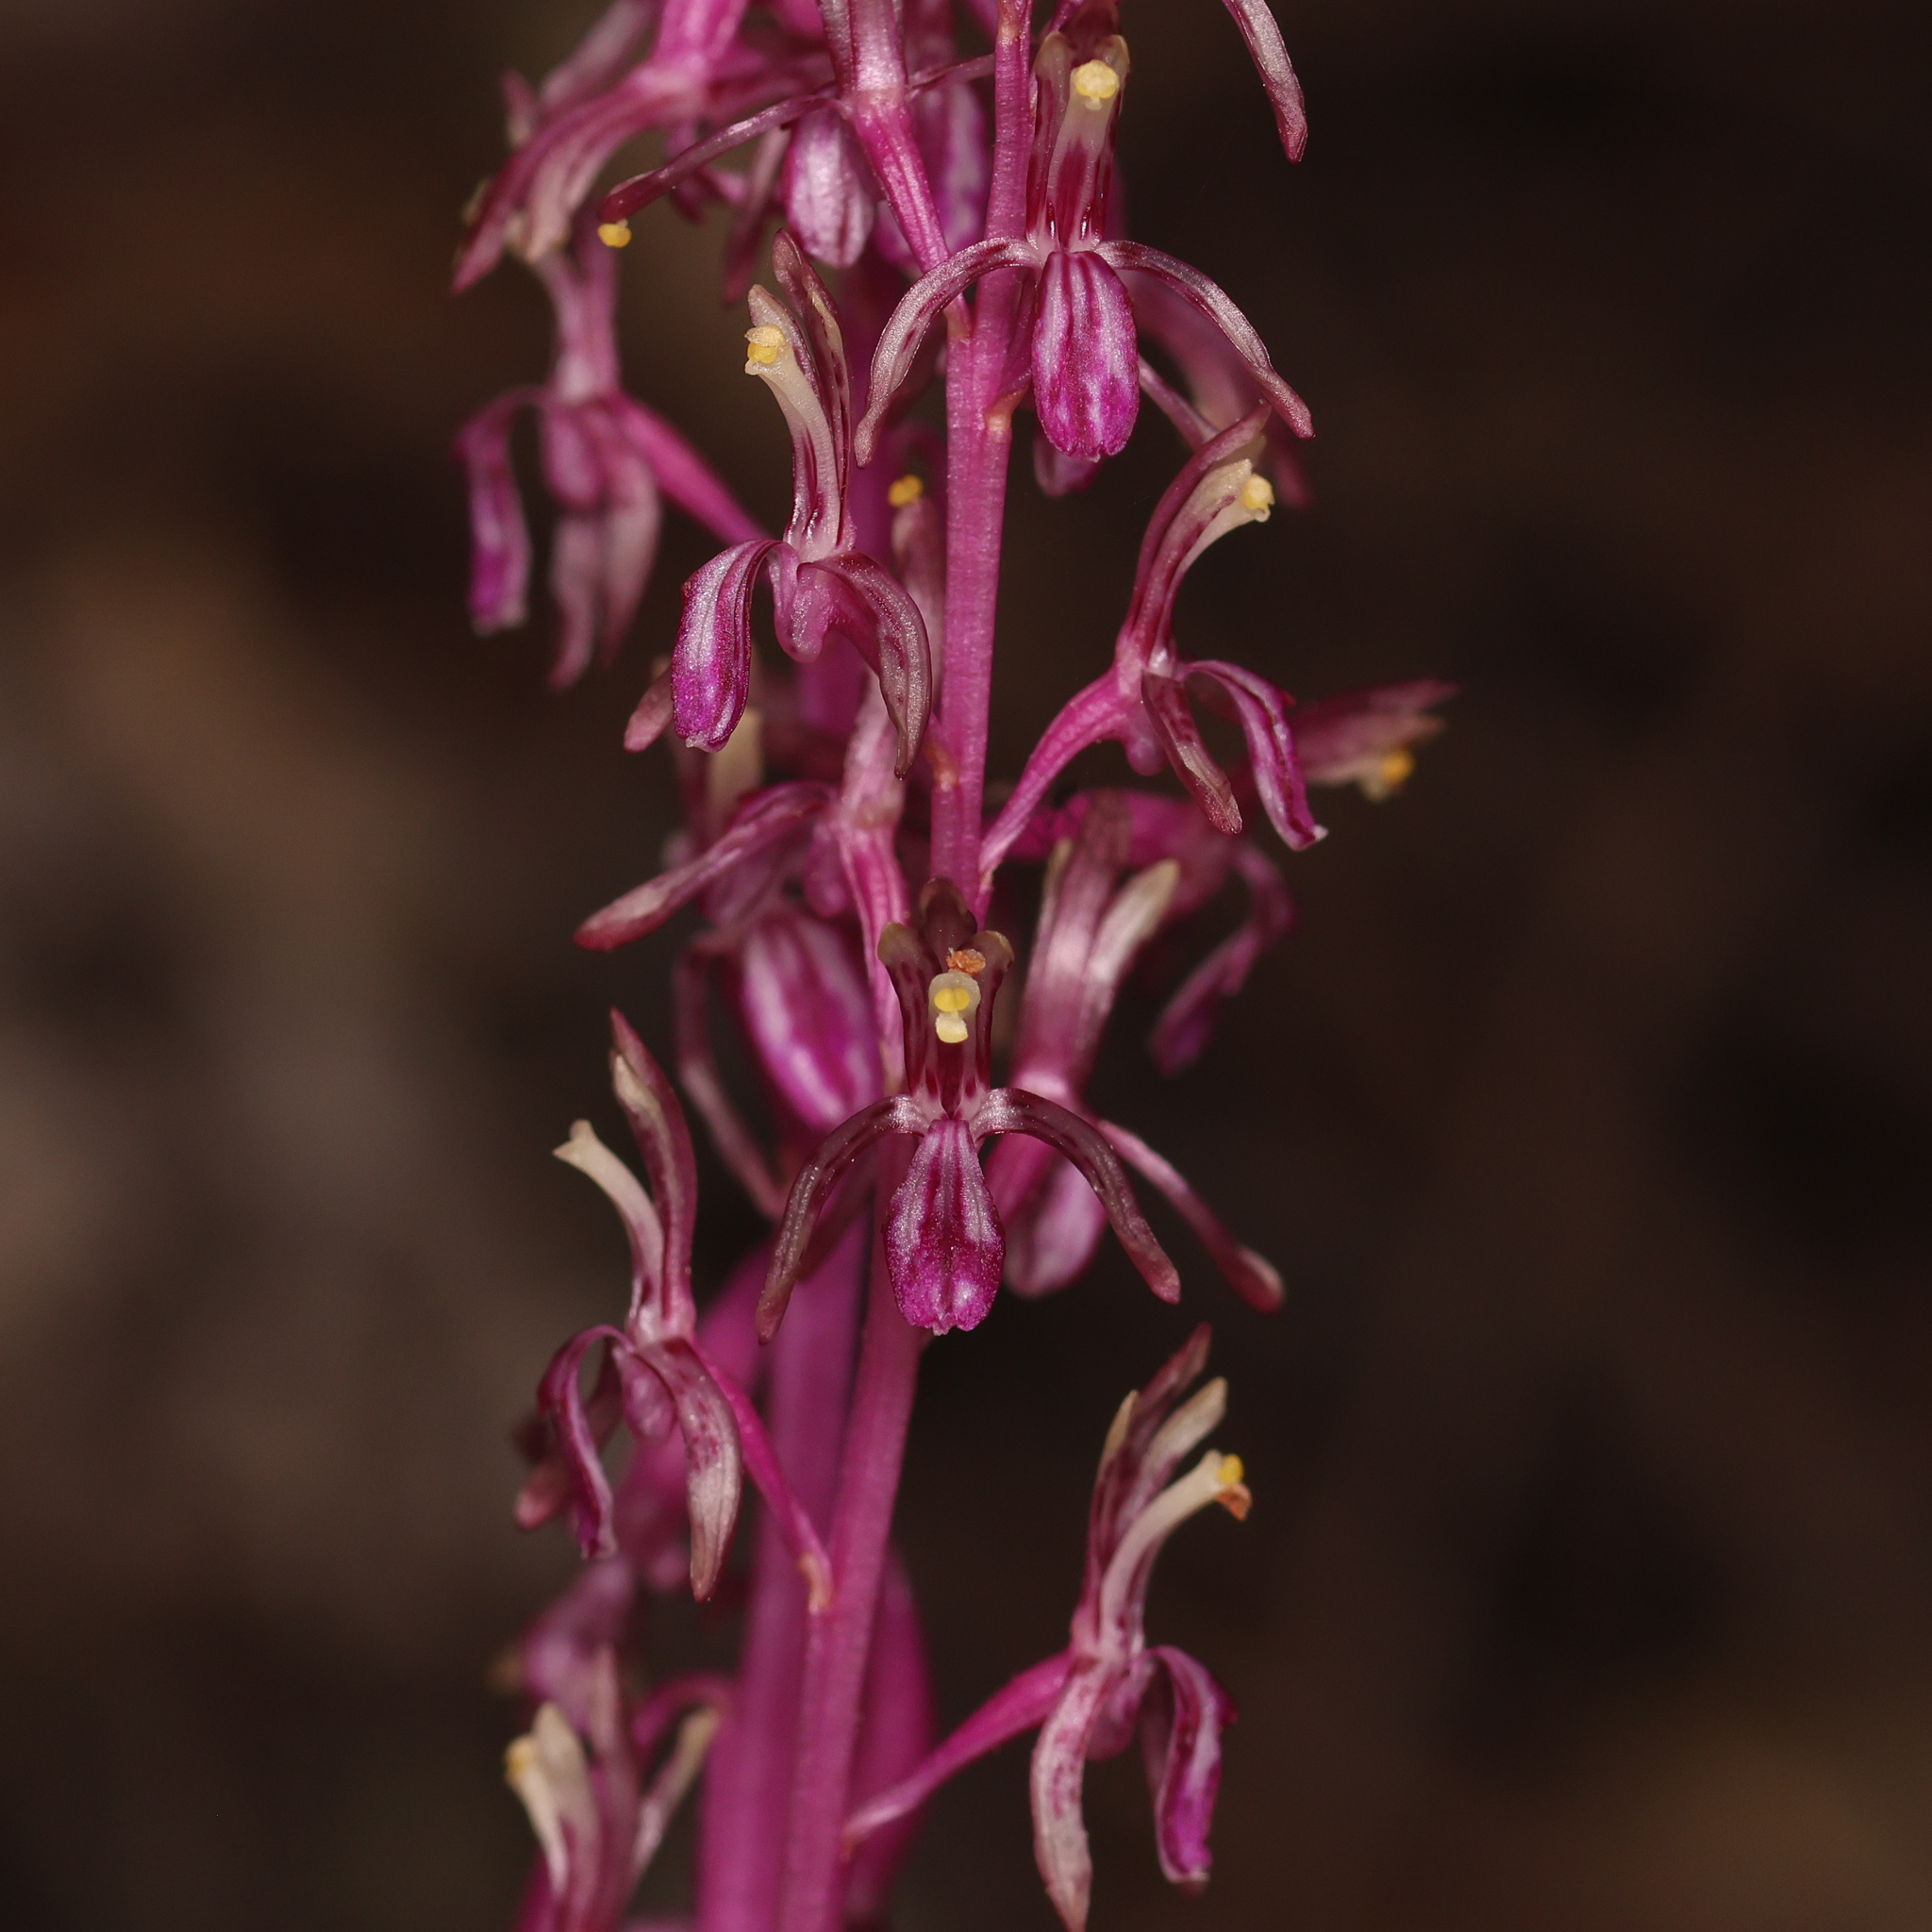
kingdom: Plantae
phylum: Tracheophyta
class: Liliopsida
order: Asparagales
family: Orchidaceae
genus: Corallorhiza
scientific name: Corallorhiza mertensiana
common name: Pacific coralroot
